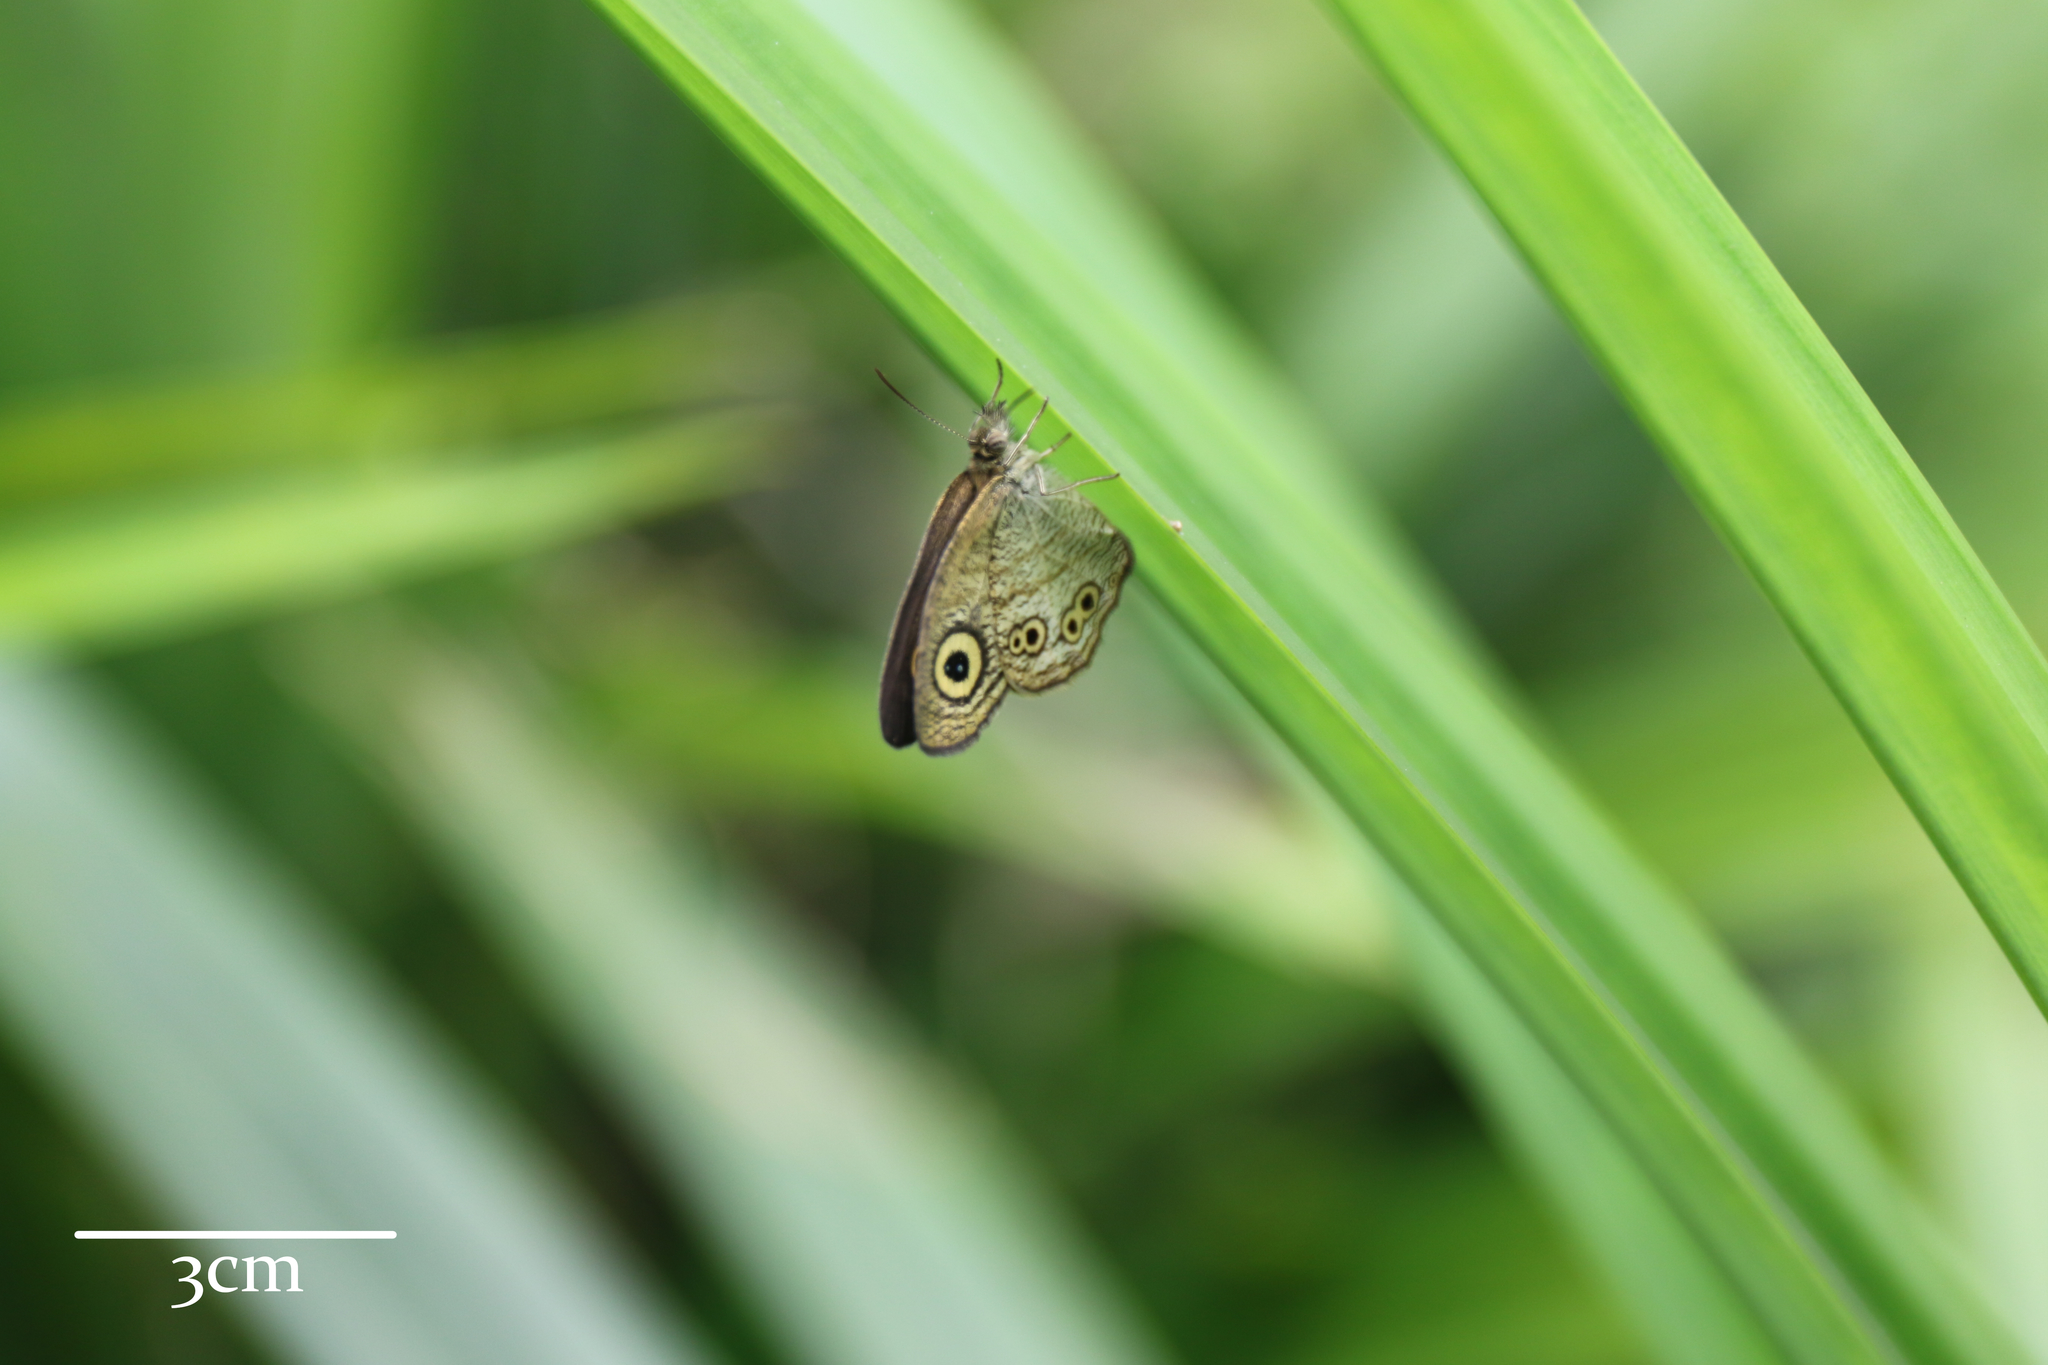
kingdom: Animalia
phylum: Arthropoda
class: Insecta
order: Lepidoptera
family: Nymphalidae
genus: Ypthima
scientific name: Ypthima baldus
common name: Common five-ring
